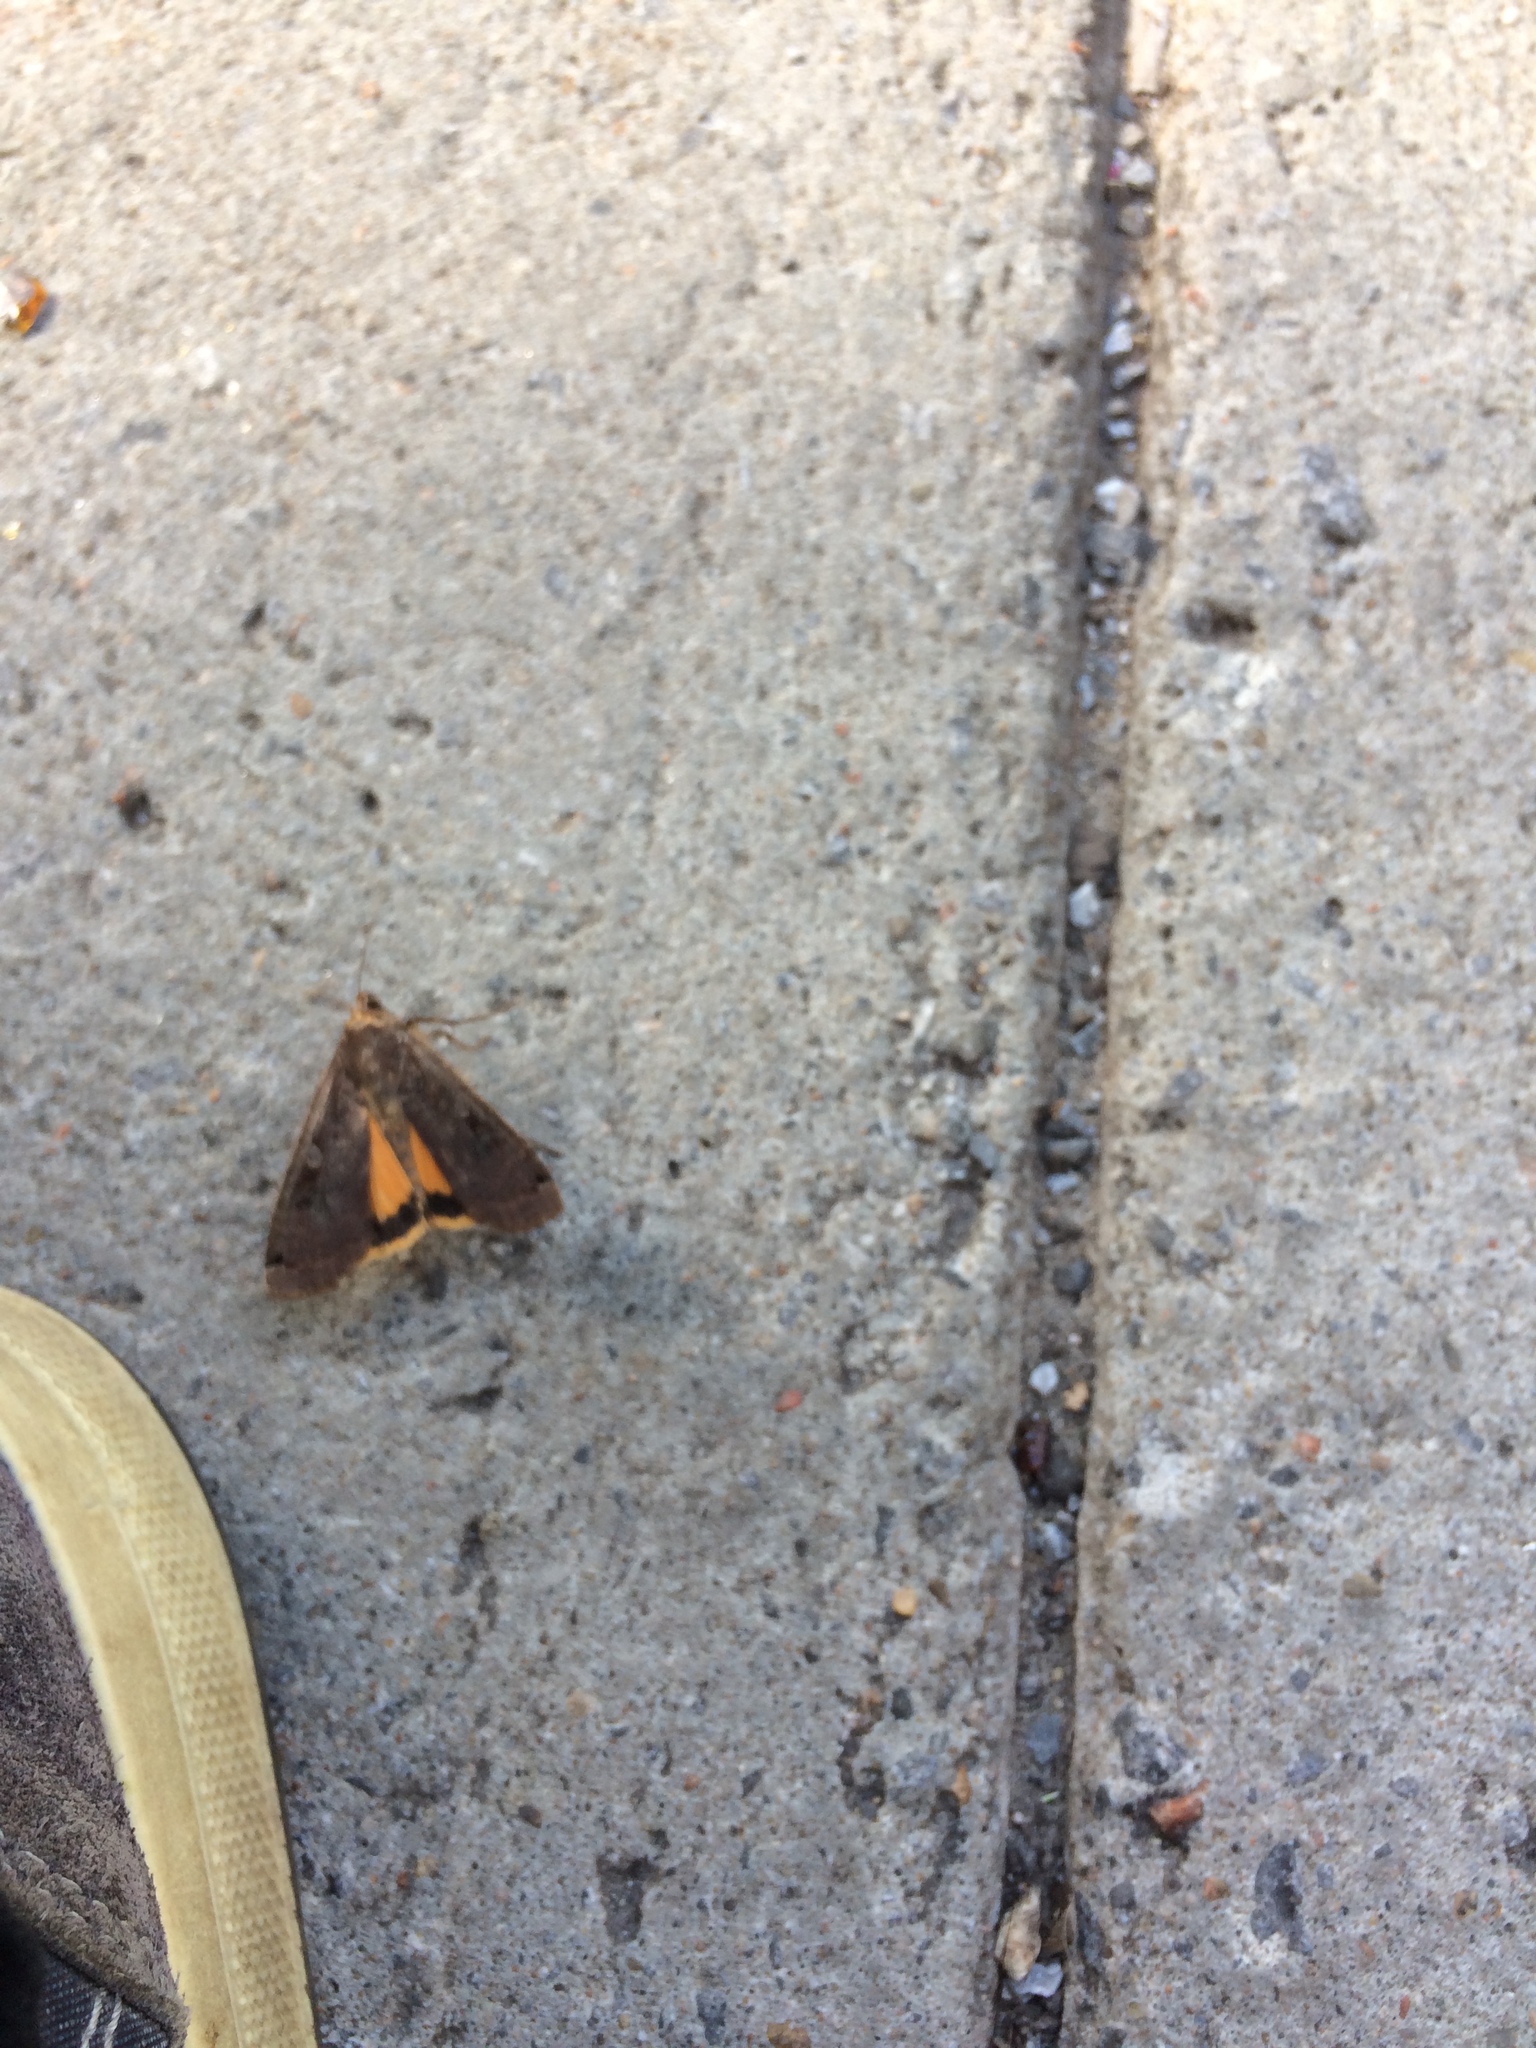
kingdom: Animalia
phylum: Arthropoda
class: Insecta
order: Lepidoptera
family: Noctuidae
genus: Noctua
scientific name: Noctua pronuba
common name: Large yellow underwing
